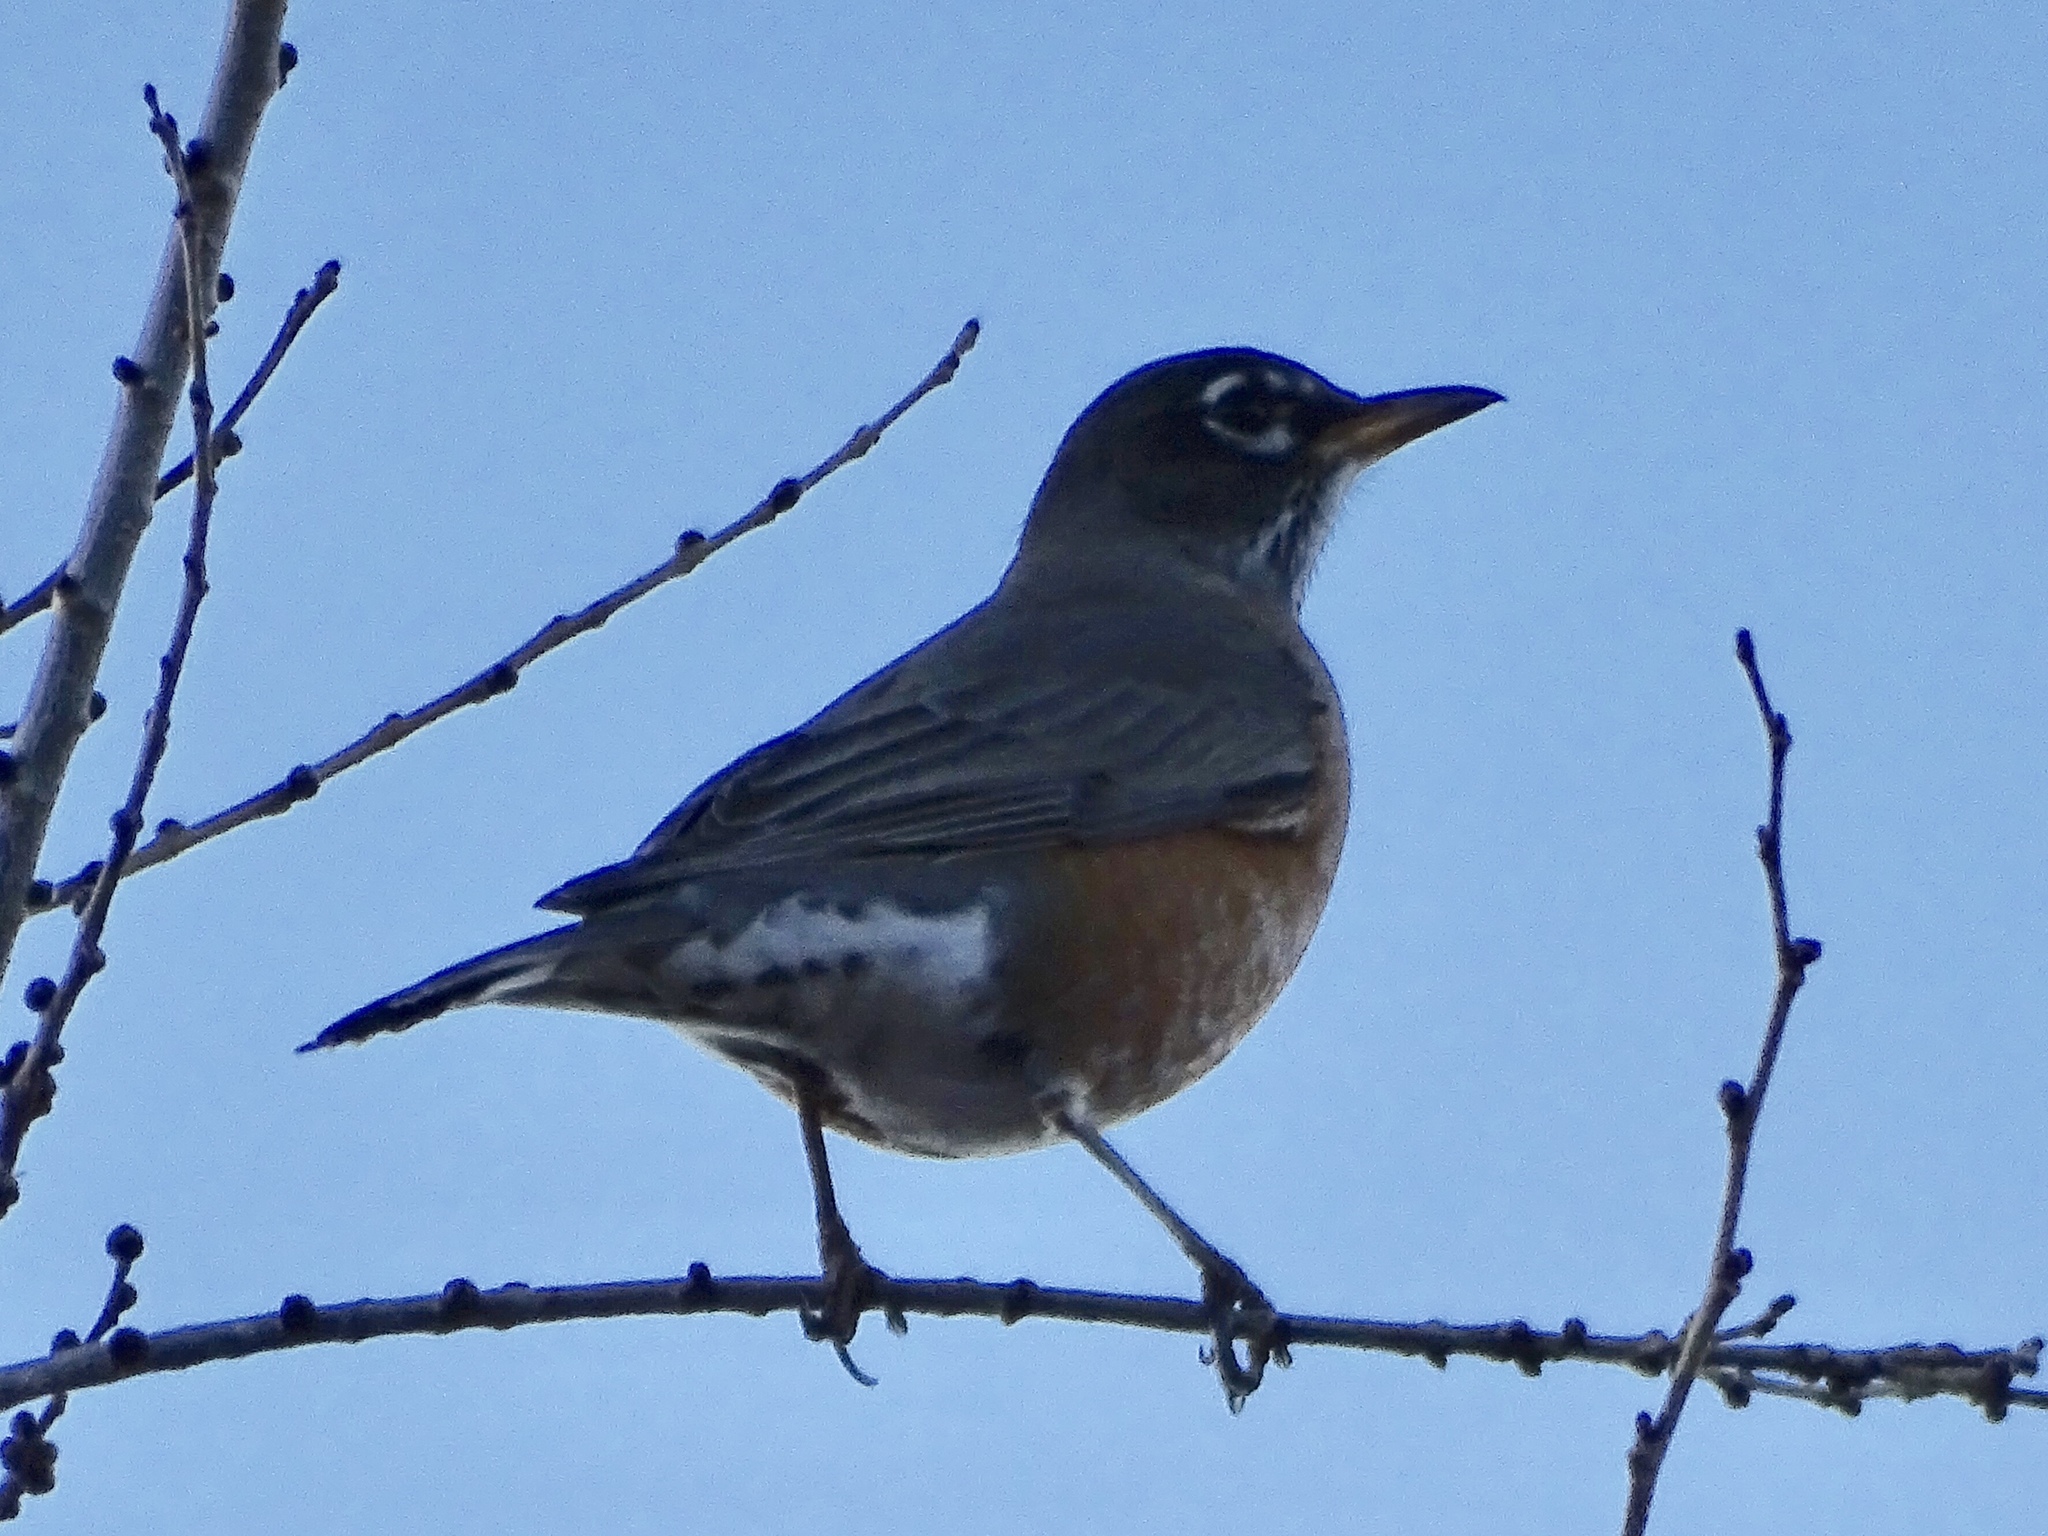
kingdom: Animalia
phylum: Chordata
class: Aves
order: Passeriformes
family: Turdidae
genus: Turdus
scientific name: Turdus migratorius
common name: American robin
